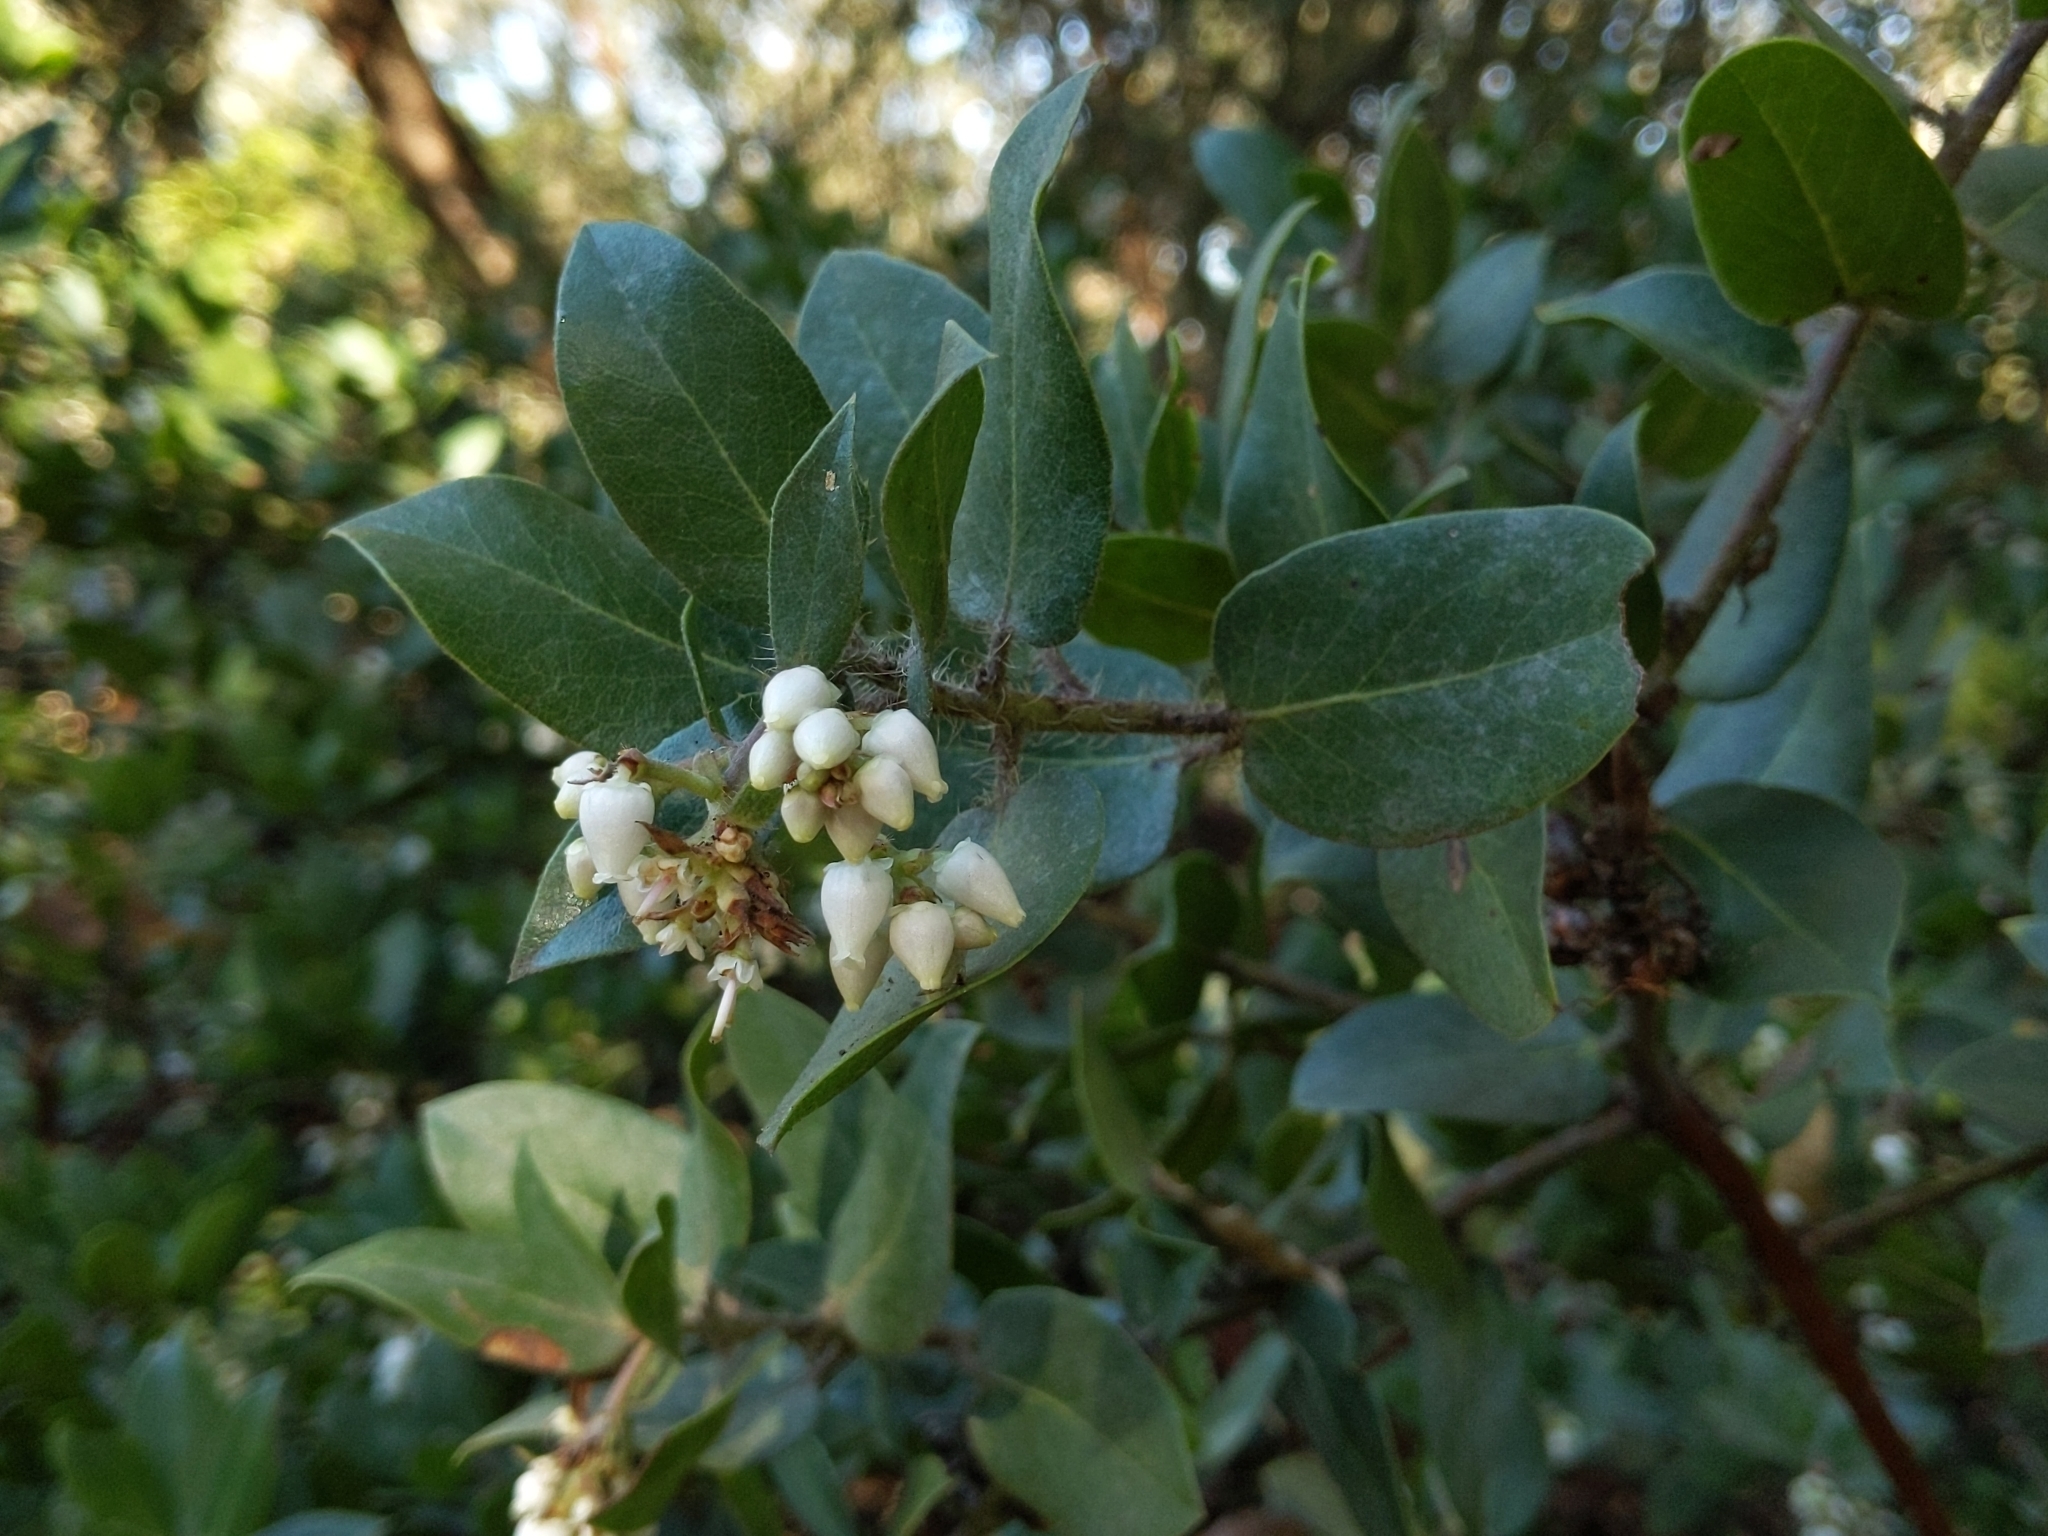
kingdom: Plantae
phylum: Tracheophyta
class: Magnoliopsida
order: Ericales
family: Ericaceae
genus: Arctostaphylos
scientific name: Arctostaphylos crustacea
